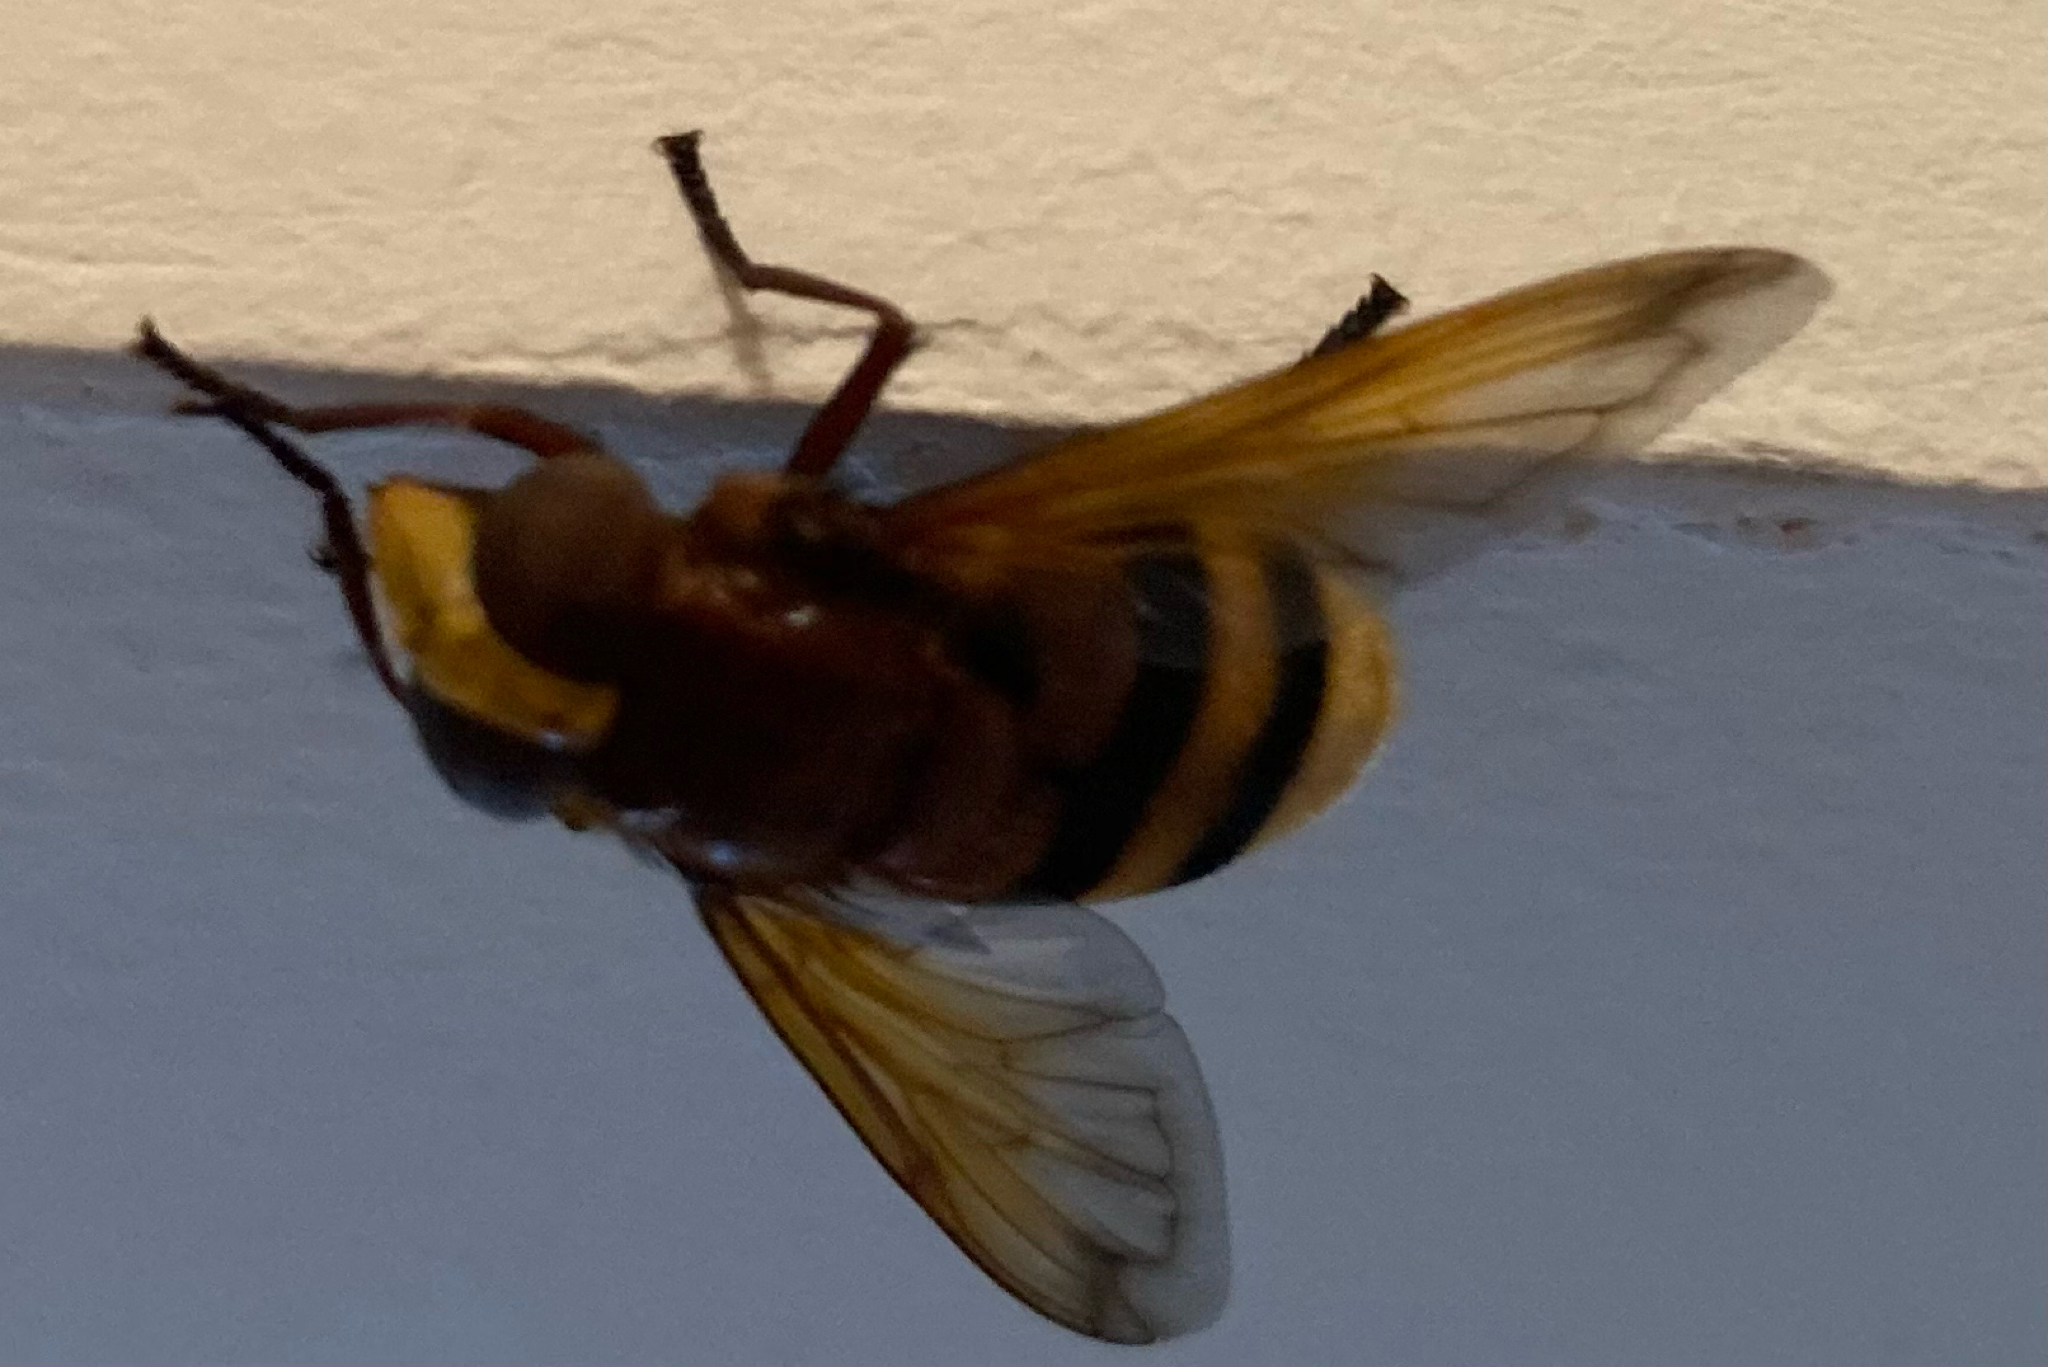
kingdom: Animalia
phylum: Arthropoda
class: Insecta
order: Diptera
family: Syrphidae
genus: Volucella
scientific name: Volucella zonaria
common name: Hornet hoverfly
